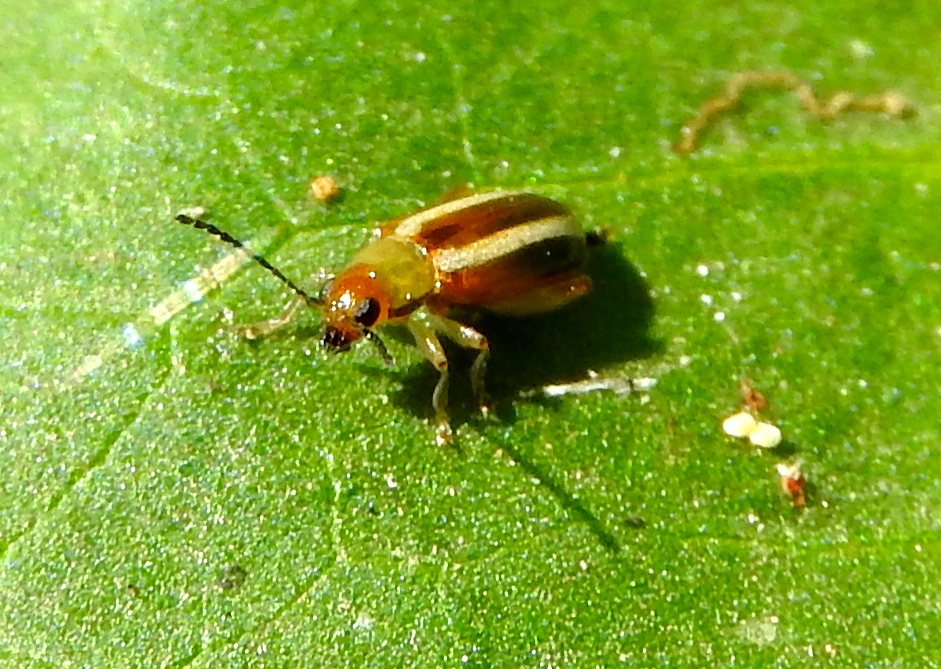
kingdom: Animalia
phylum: Arthropoda
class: Insecta
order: Coleoptera
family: Chrysomelidae
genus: Systena
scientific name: Systena
